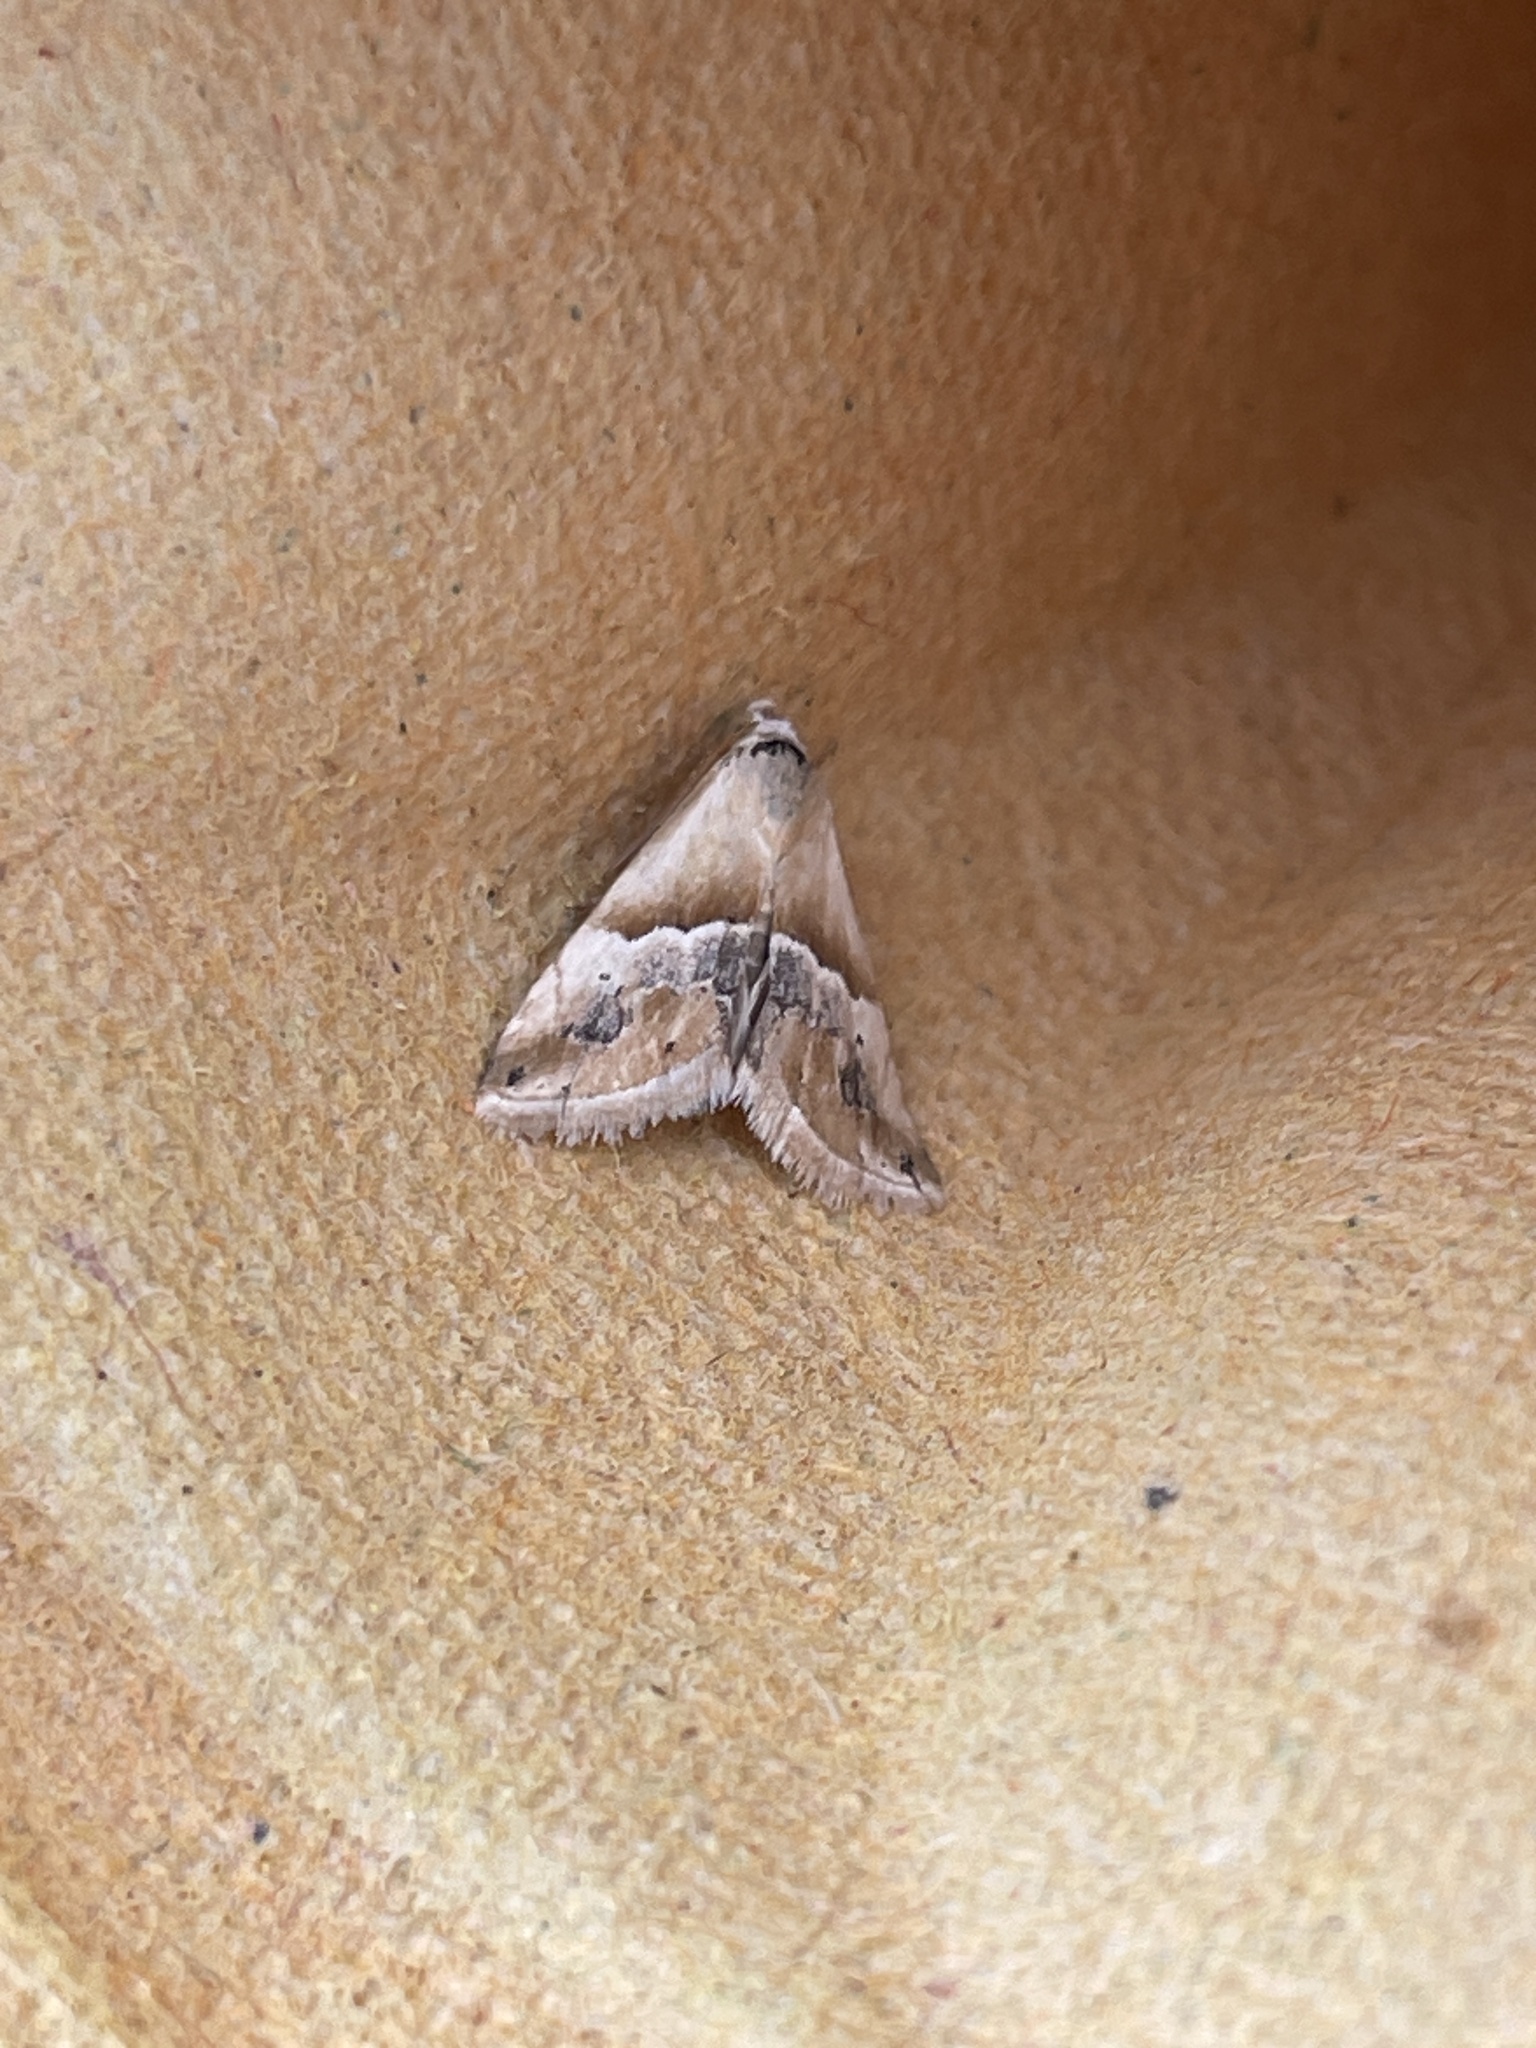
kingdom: Animalia
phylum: Arthropoda
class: Insecta
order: Lepidoptera
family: Noctuidae
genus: Eublemma
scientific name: Eublemma parva
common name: Small marbled
